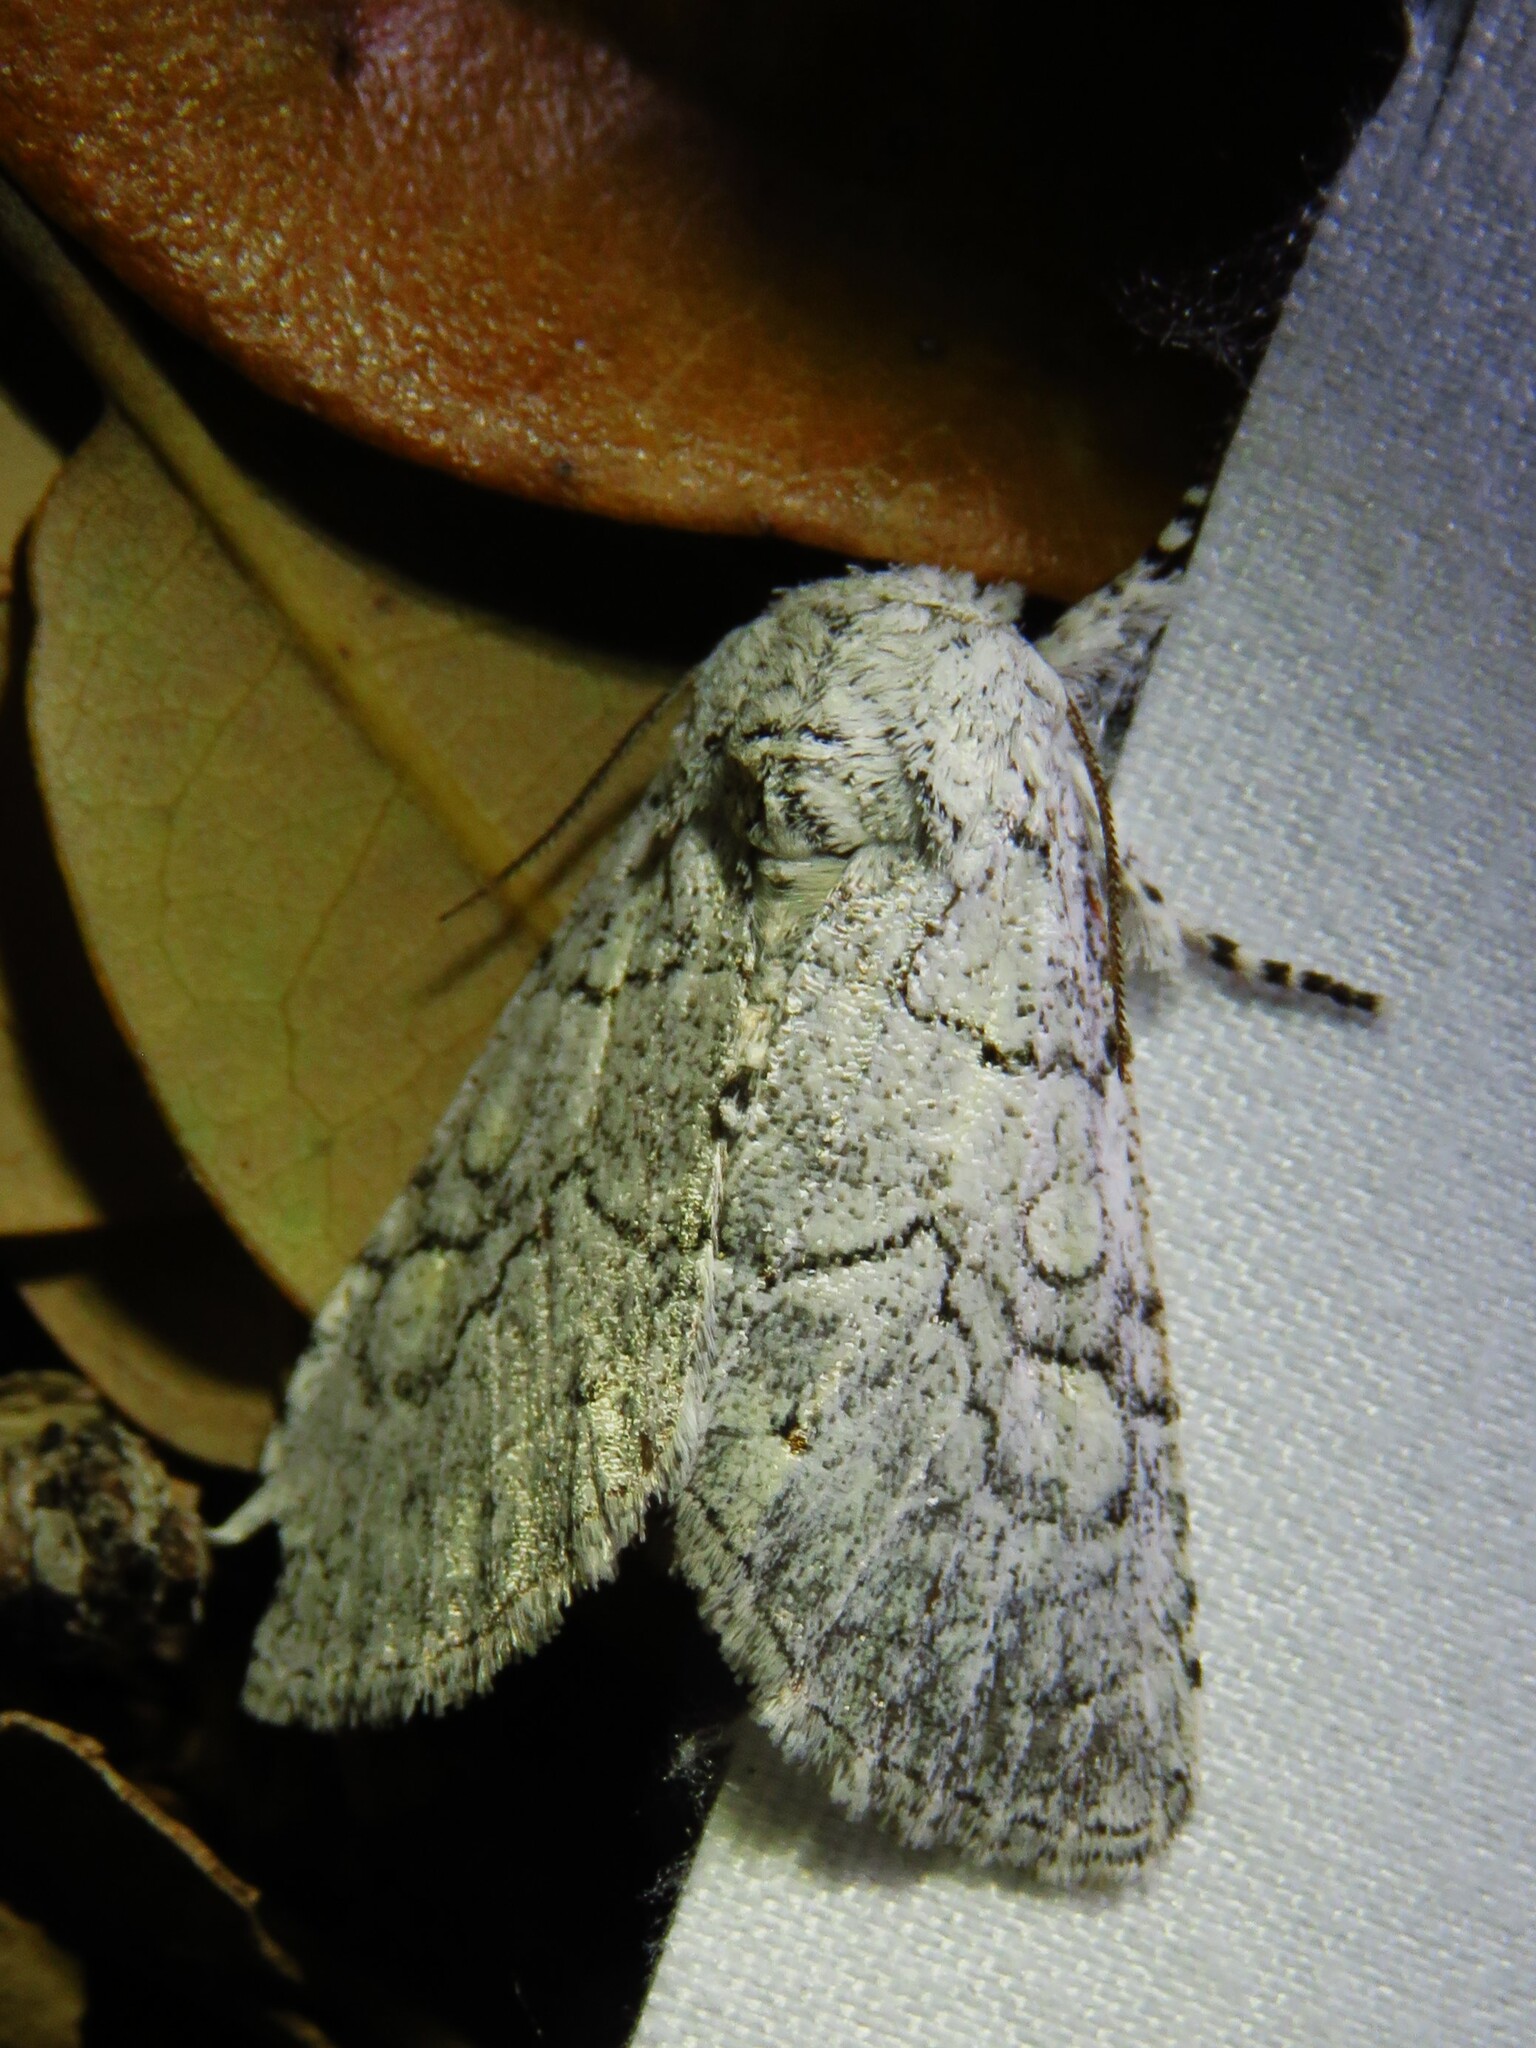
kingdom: Animalia
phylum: Arthropoda
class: Insecta
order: Lepidoptera
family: Noctuidae
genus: Charadra
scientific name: Charadra dispulsa
